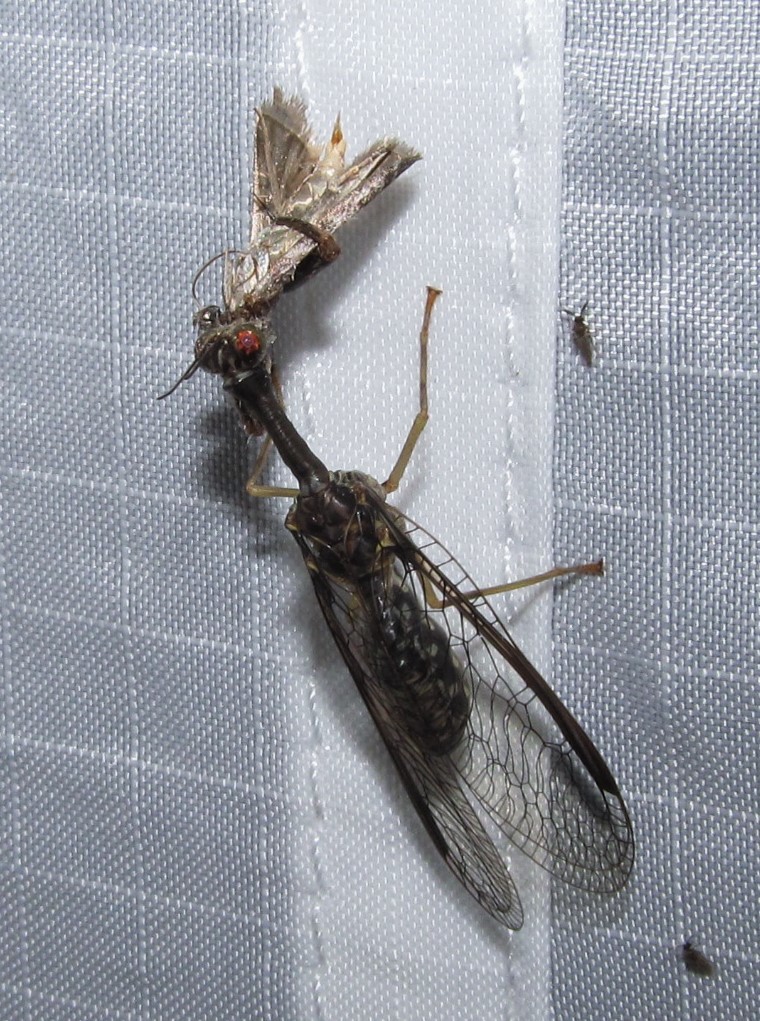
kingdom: Animalia
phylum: Arthropoda
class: Insecta
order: Neuroptera
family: Mantispidae
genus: Dicromantispa
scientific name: Dicromantispa sayi
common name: Say's mantidfly
